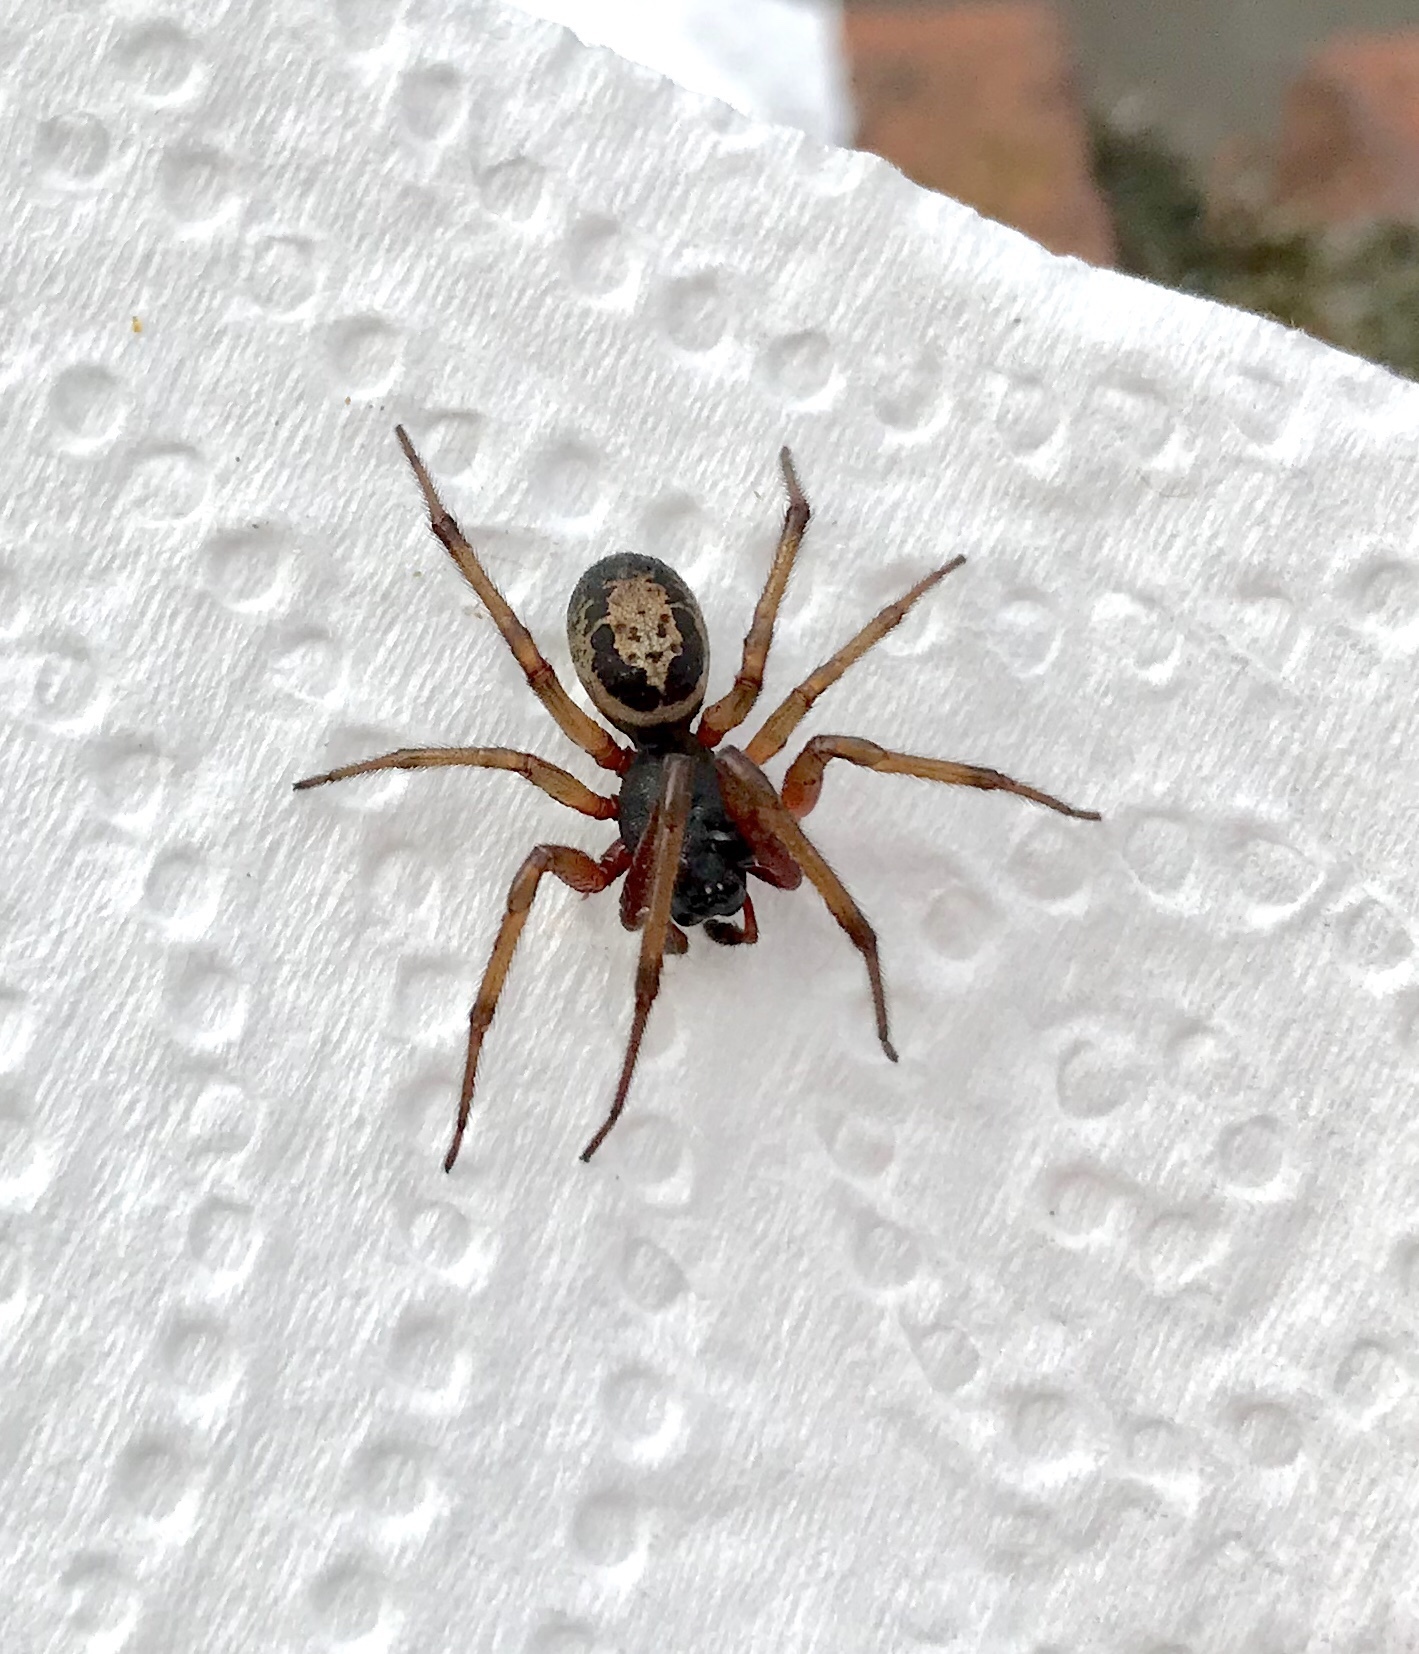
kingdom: Animalia
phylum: Arthropoda
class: Arachnida
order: Araneae
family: Theridiidae
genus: Steatoda
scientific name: Steatoda nobilis
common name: Cobweb weaver
